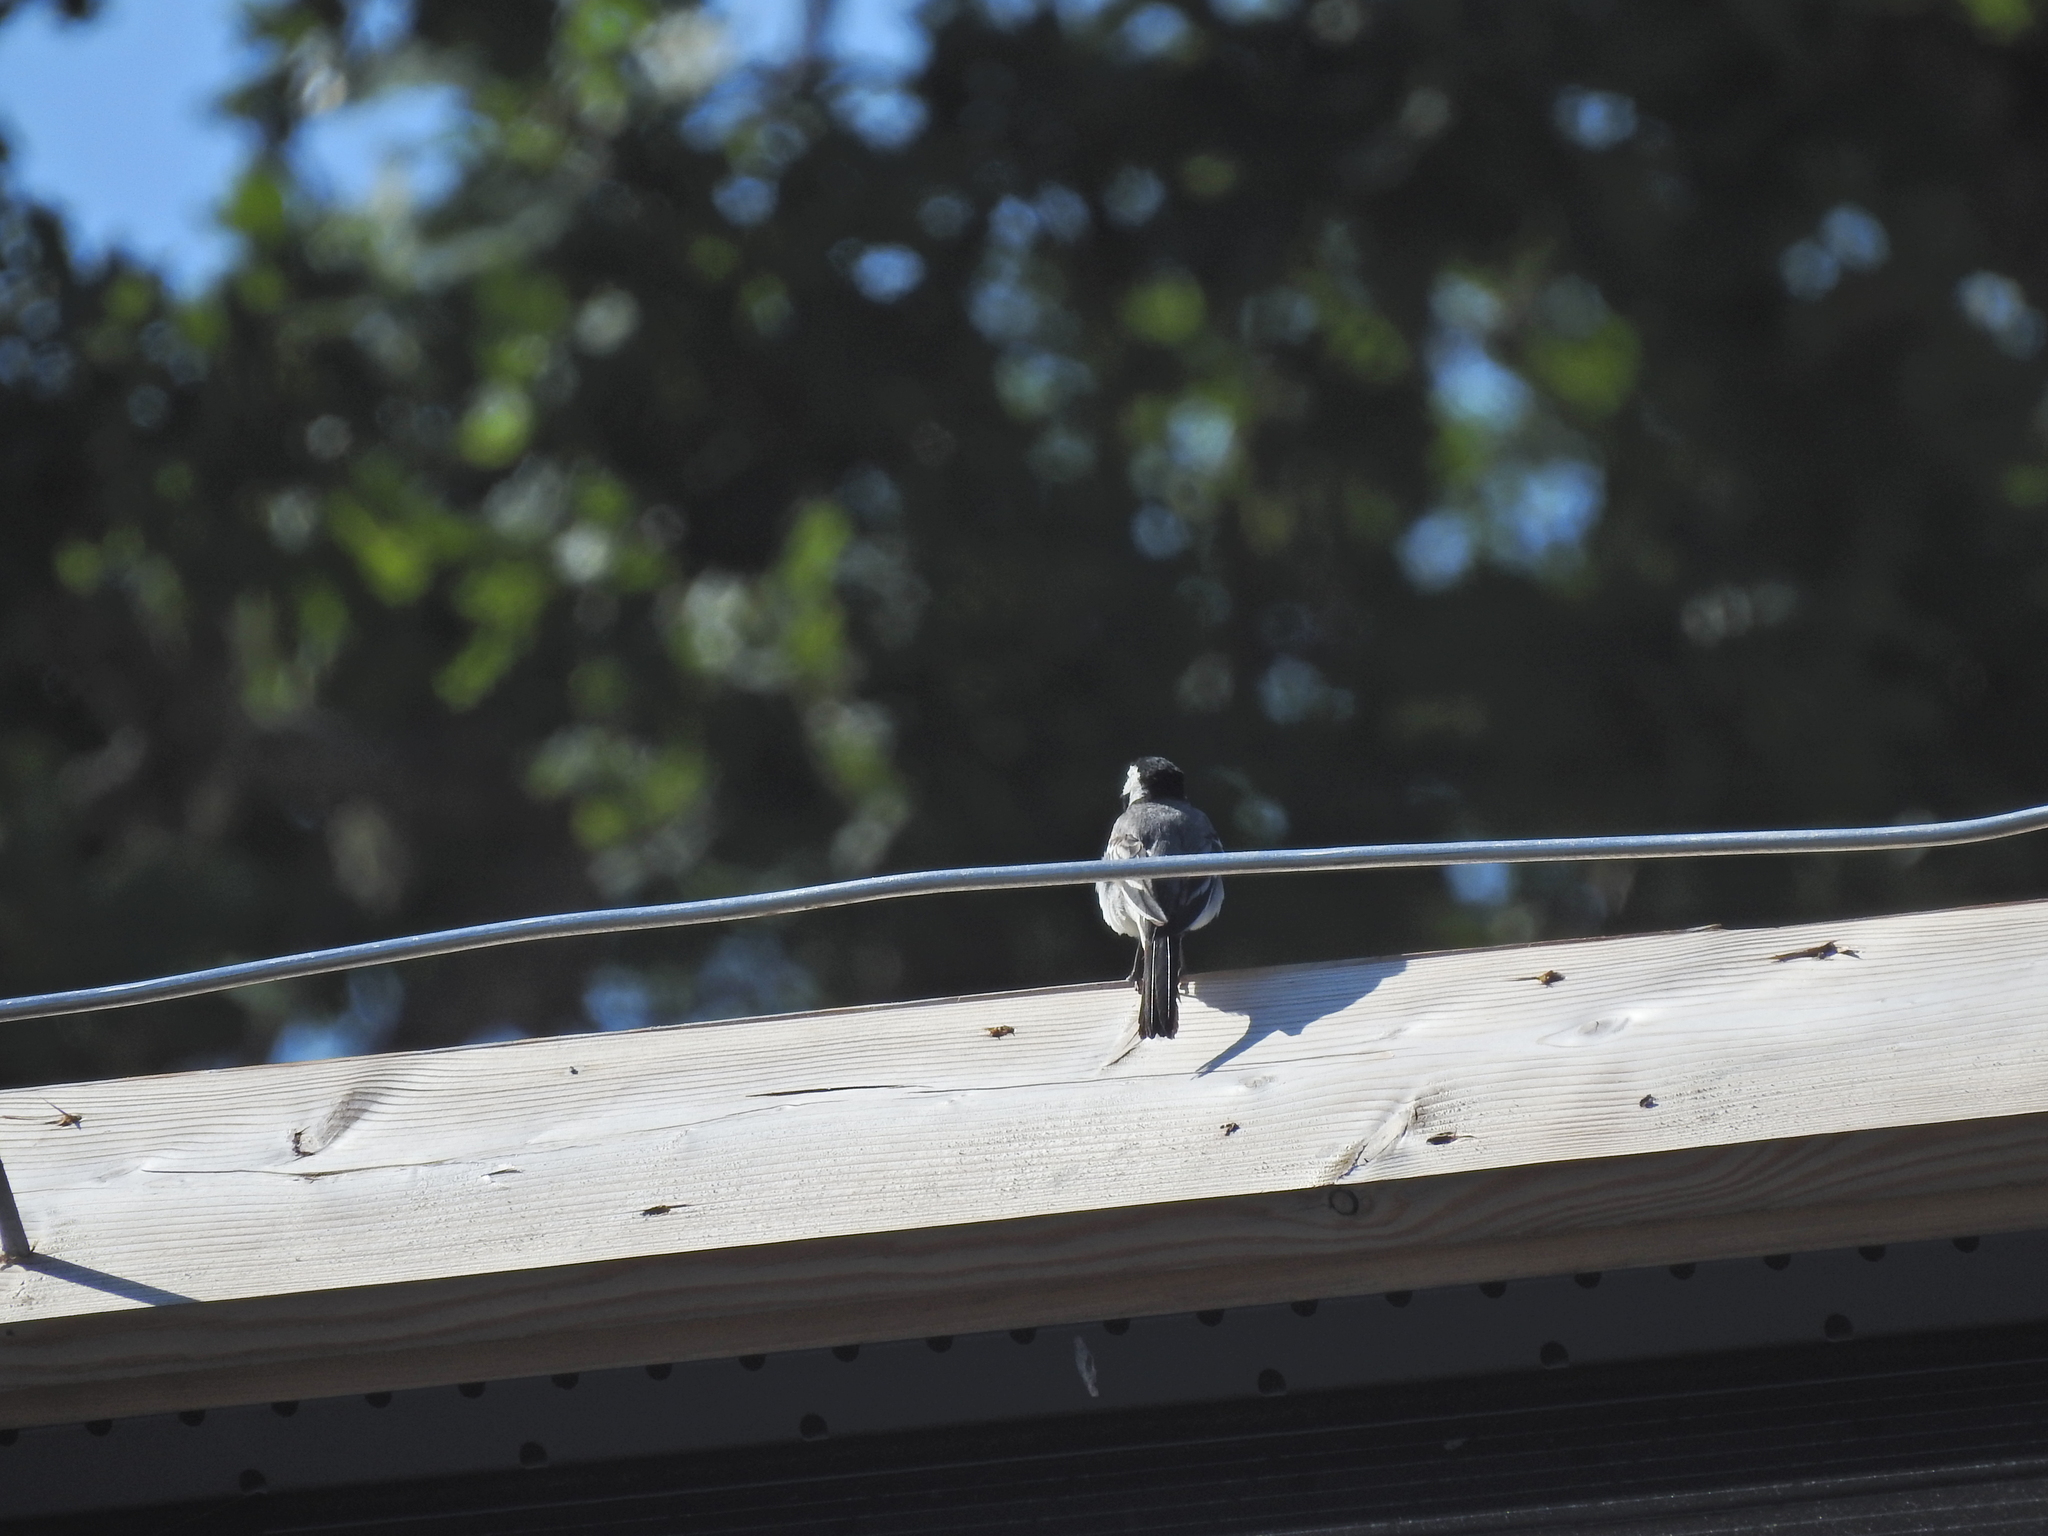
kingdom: Animalia
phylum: Chordata
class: Aves
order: Passeriformes
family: Motacillidae
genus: Motacilla
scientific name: Motacilla alba
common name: White wagtail
